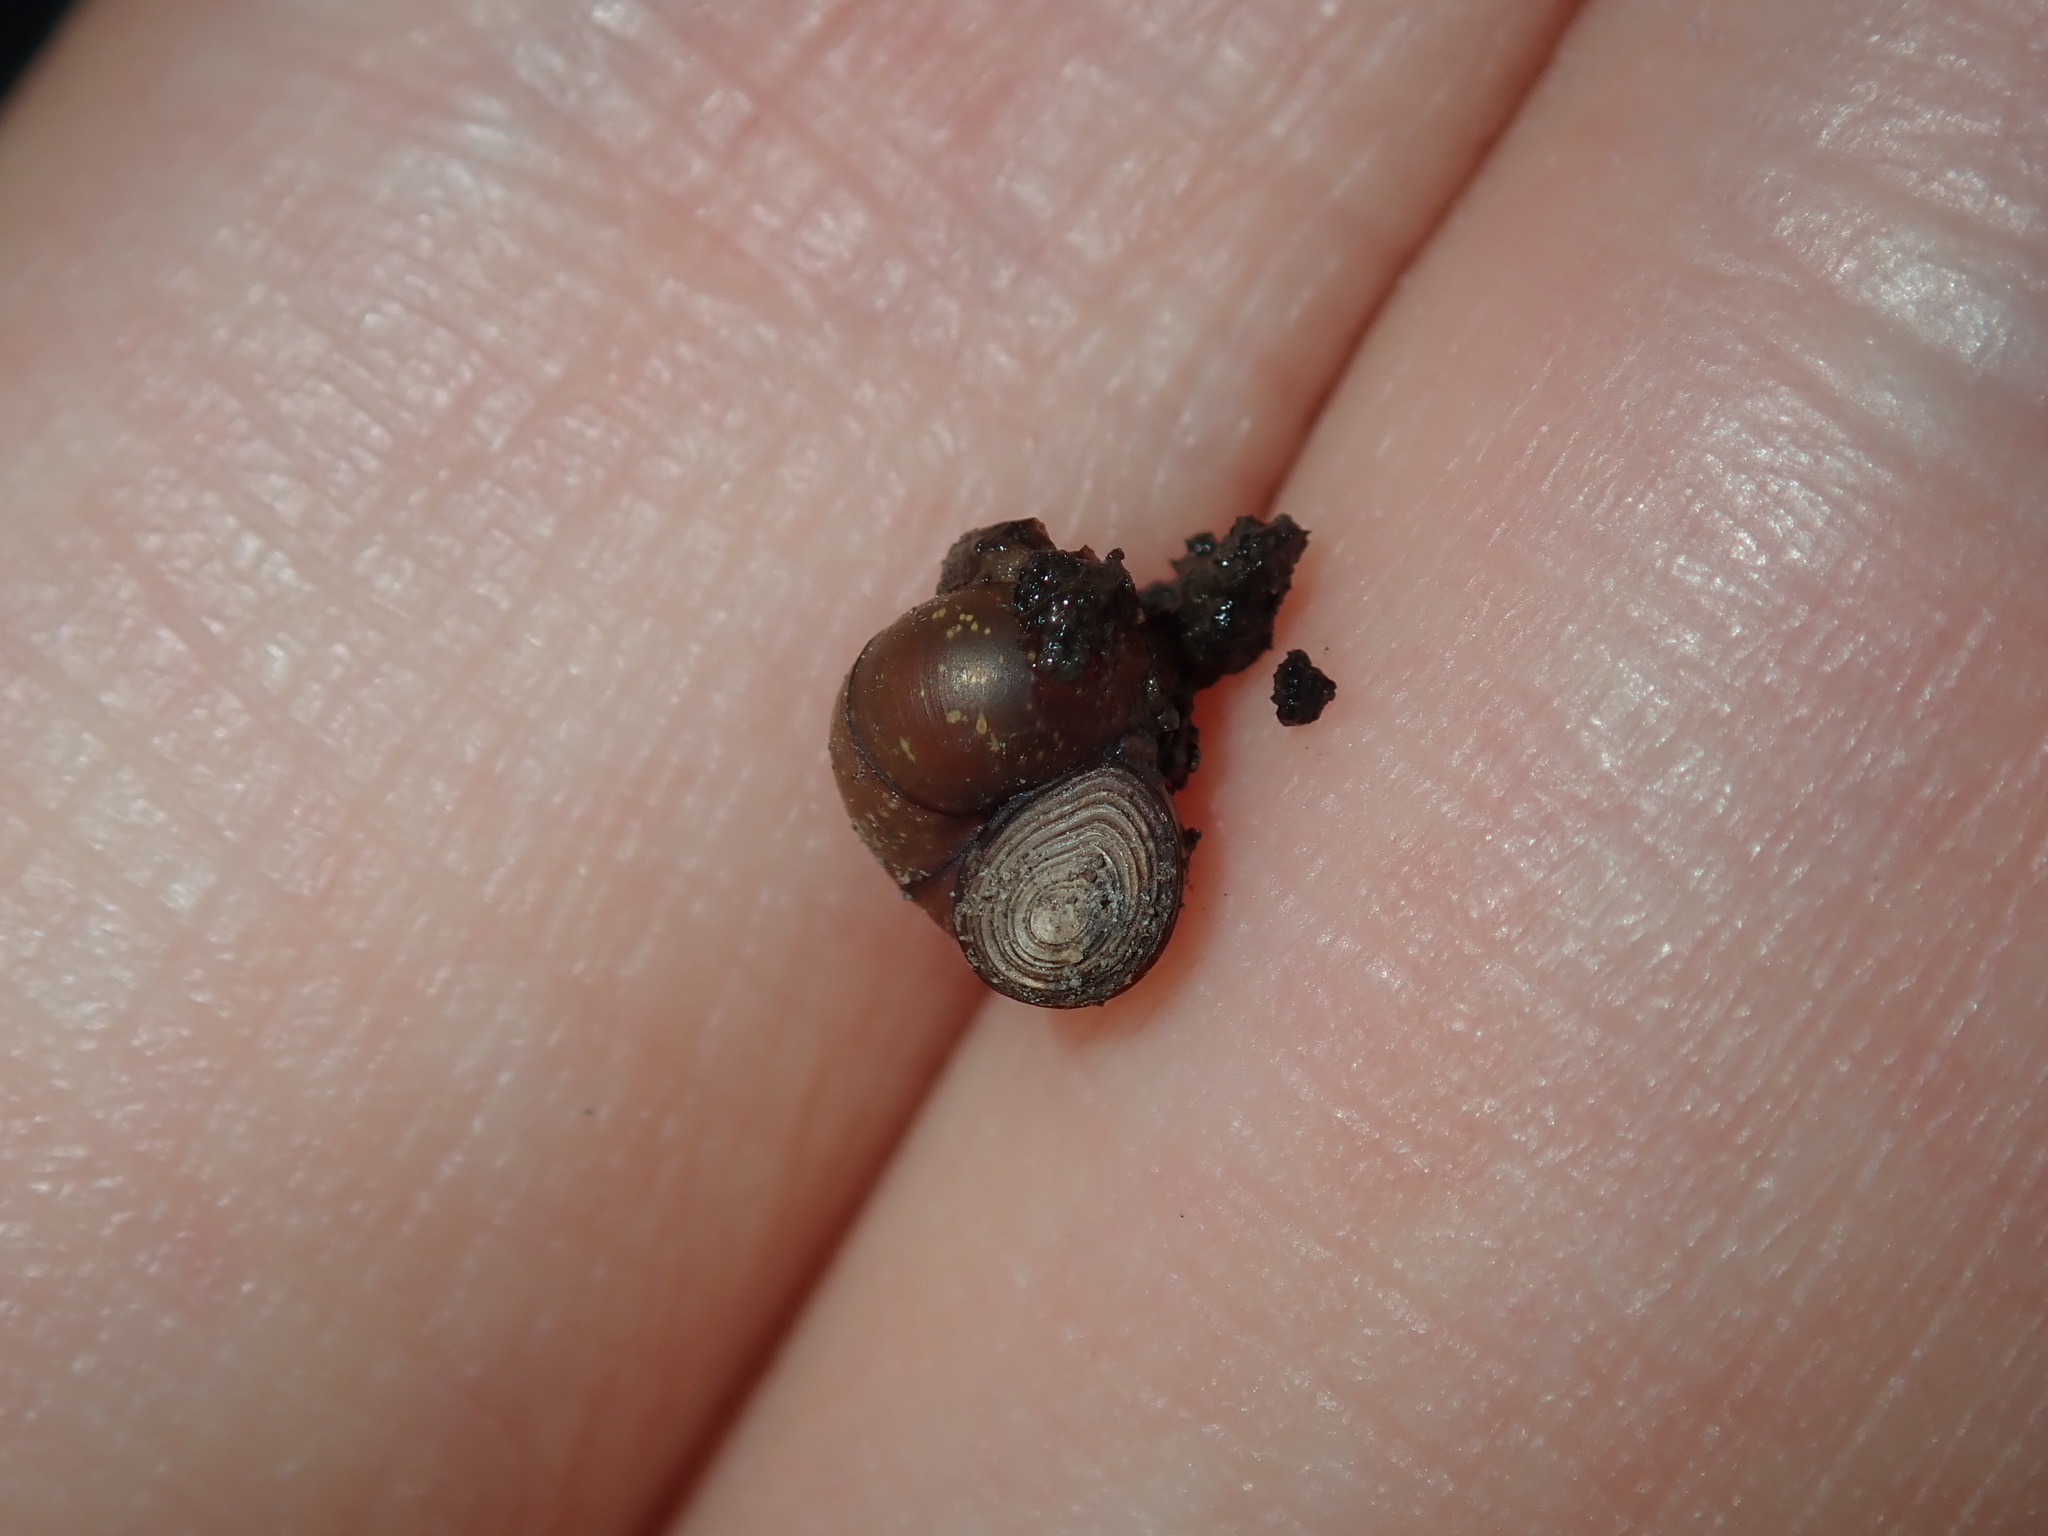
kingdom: Animalia
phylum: Mollusca
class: Gastropoda
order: Littorinimorpha
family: Bithyniidae
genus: Gabbia
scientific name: Gabbia vertiginosa
